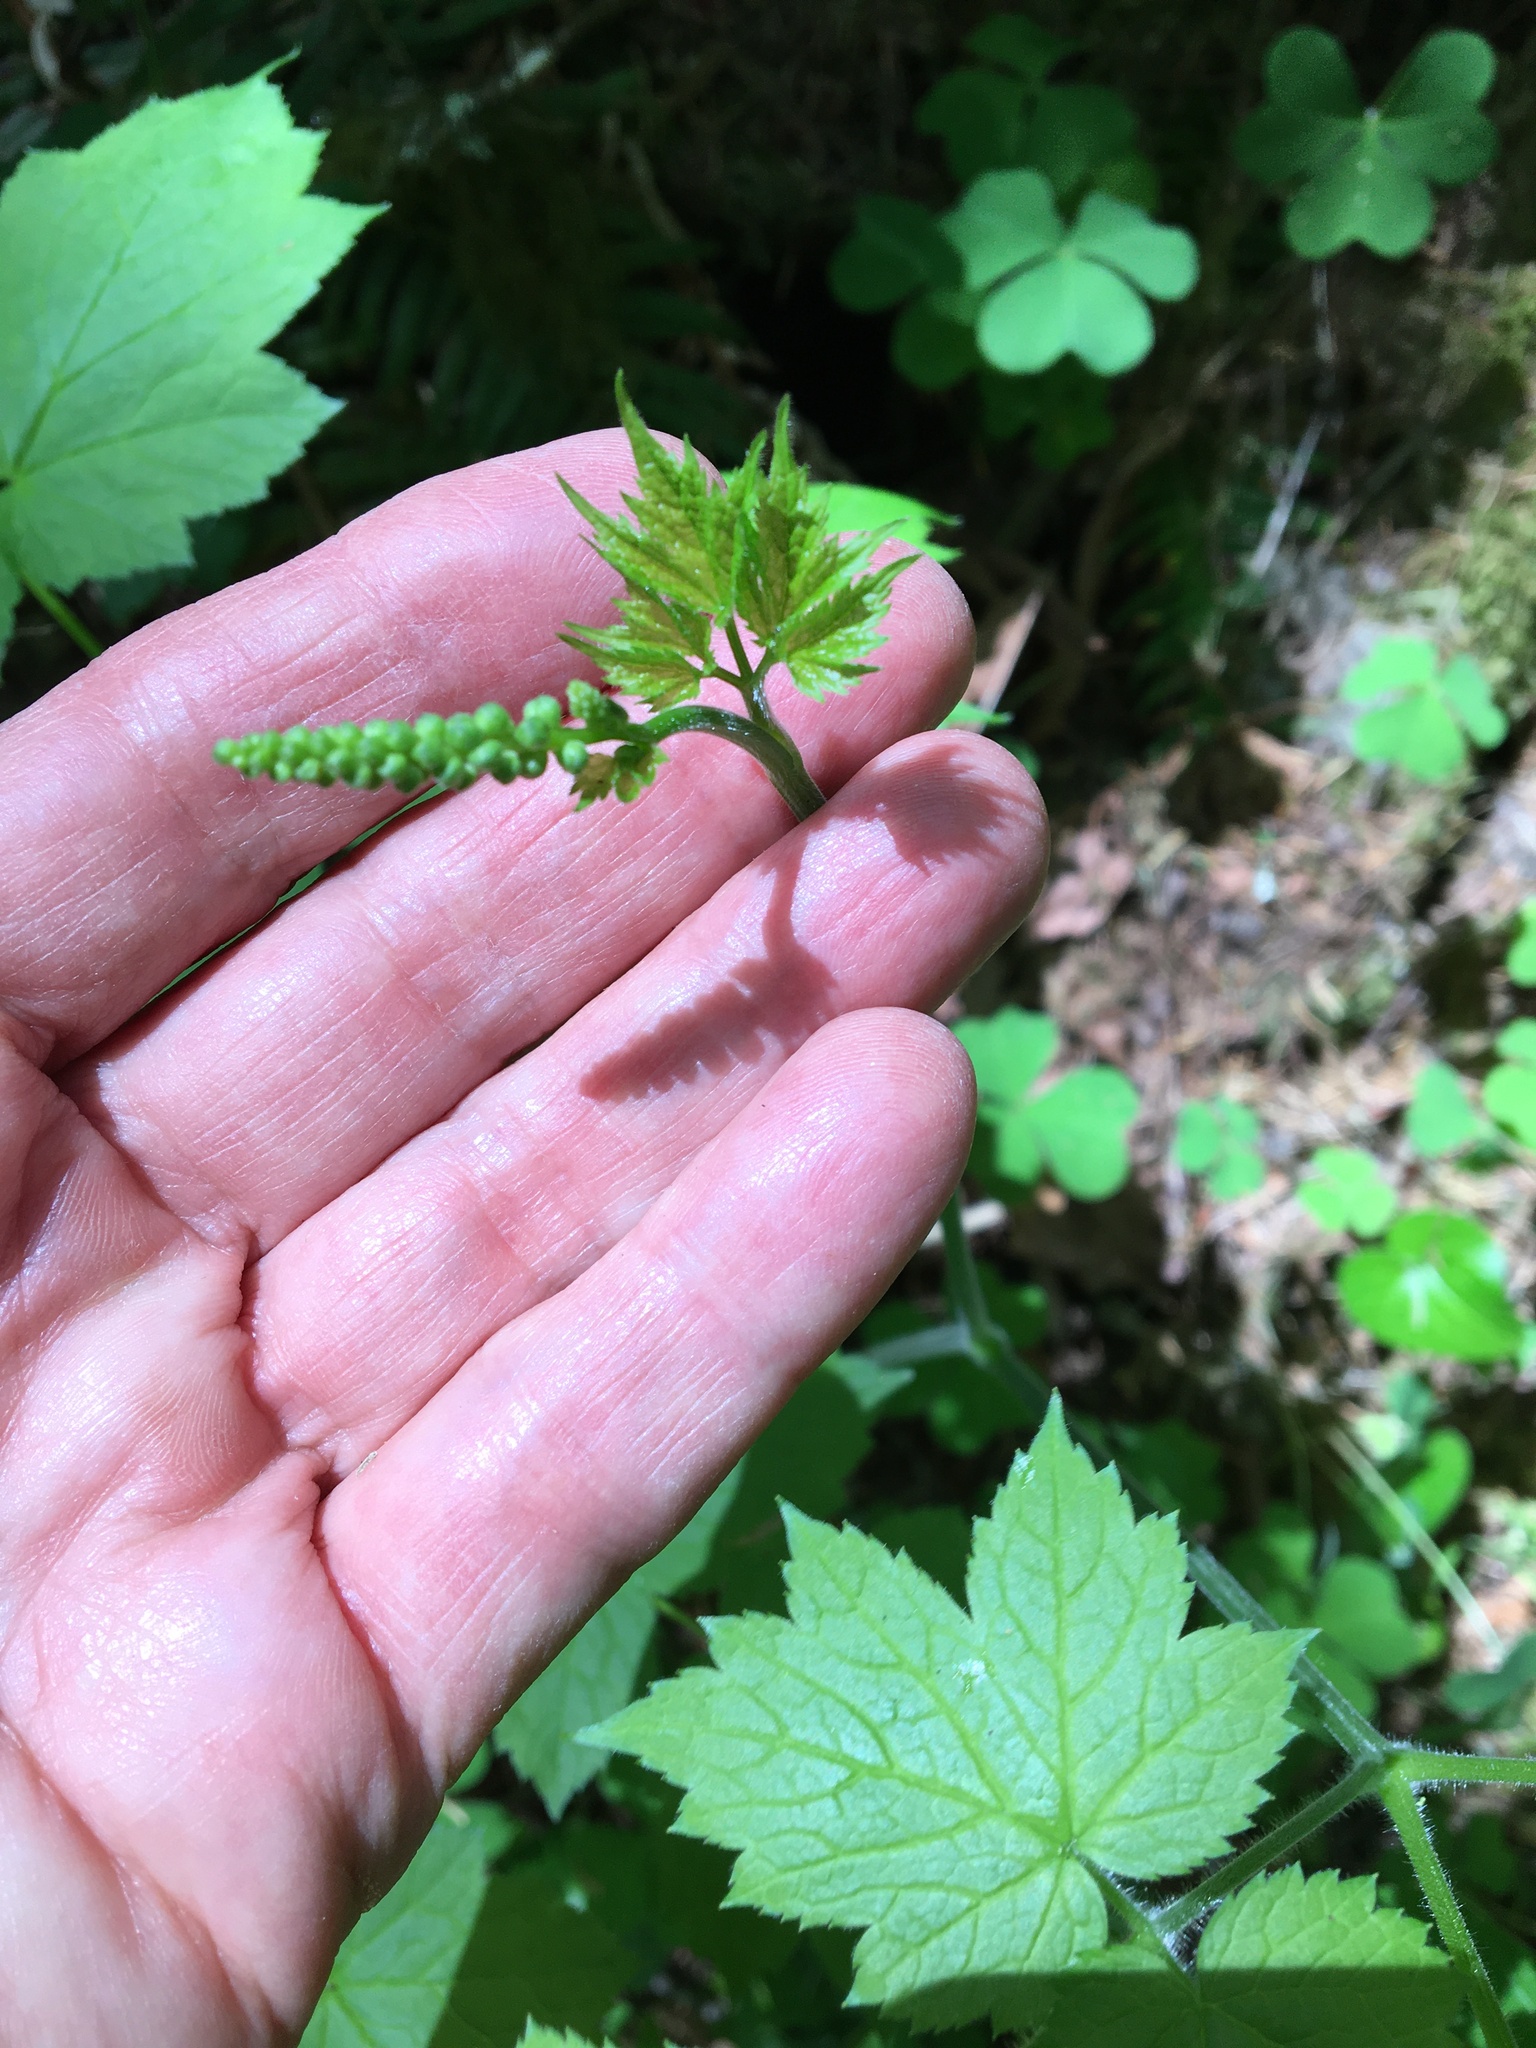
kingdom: Plantae
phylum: Tracheophyta
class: Magnoliopsida
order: Ranunculales
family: Ranunculaceae
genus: Actaea
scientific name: Actaea elata
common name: Tall bugbane
